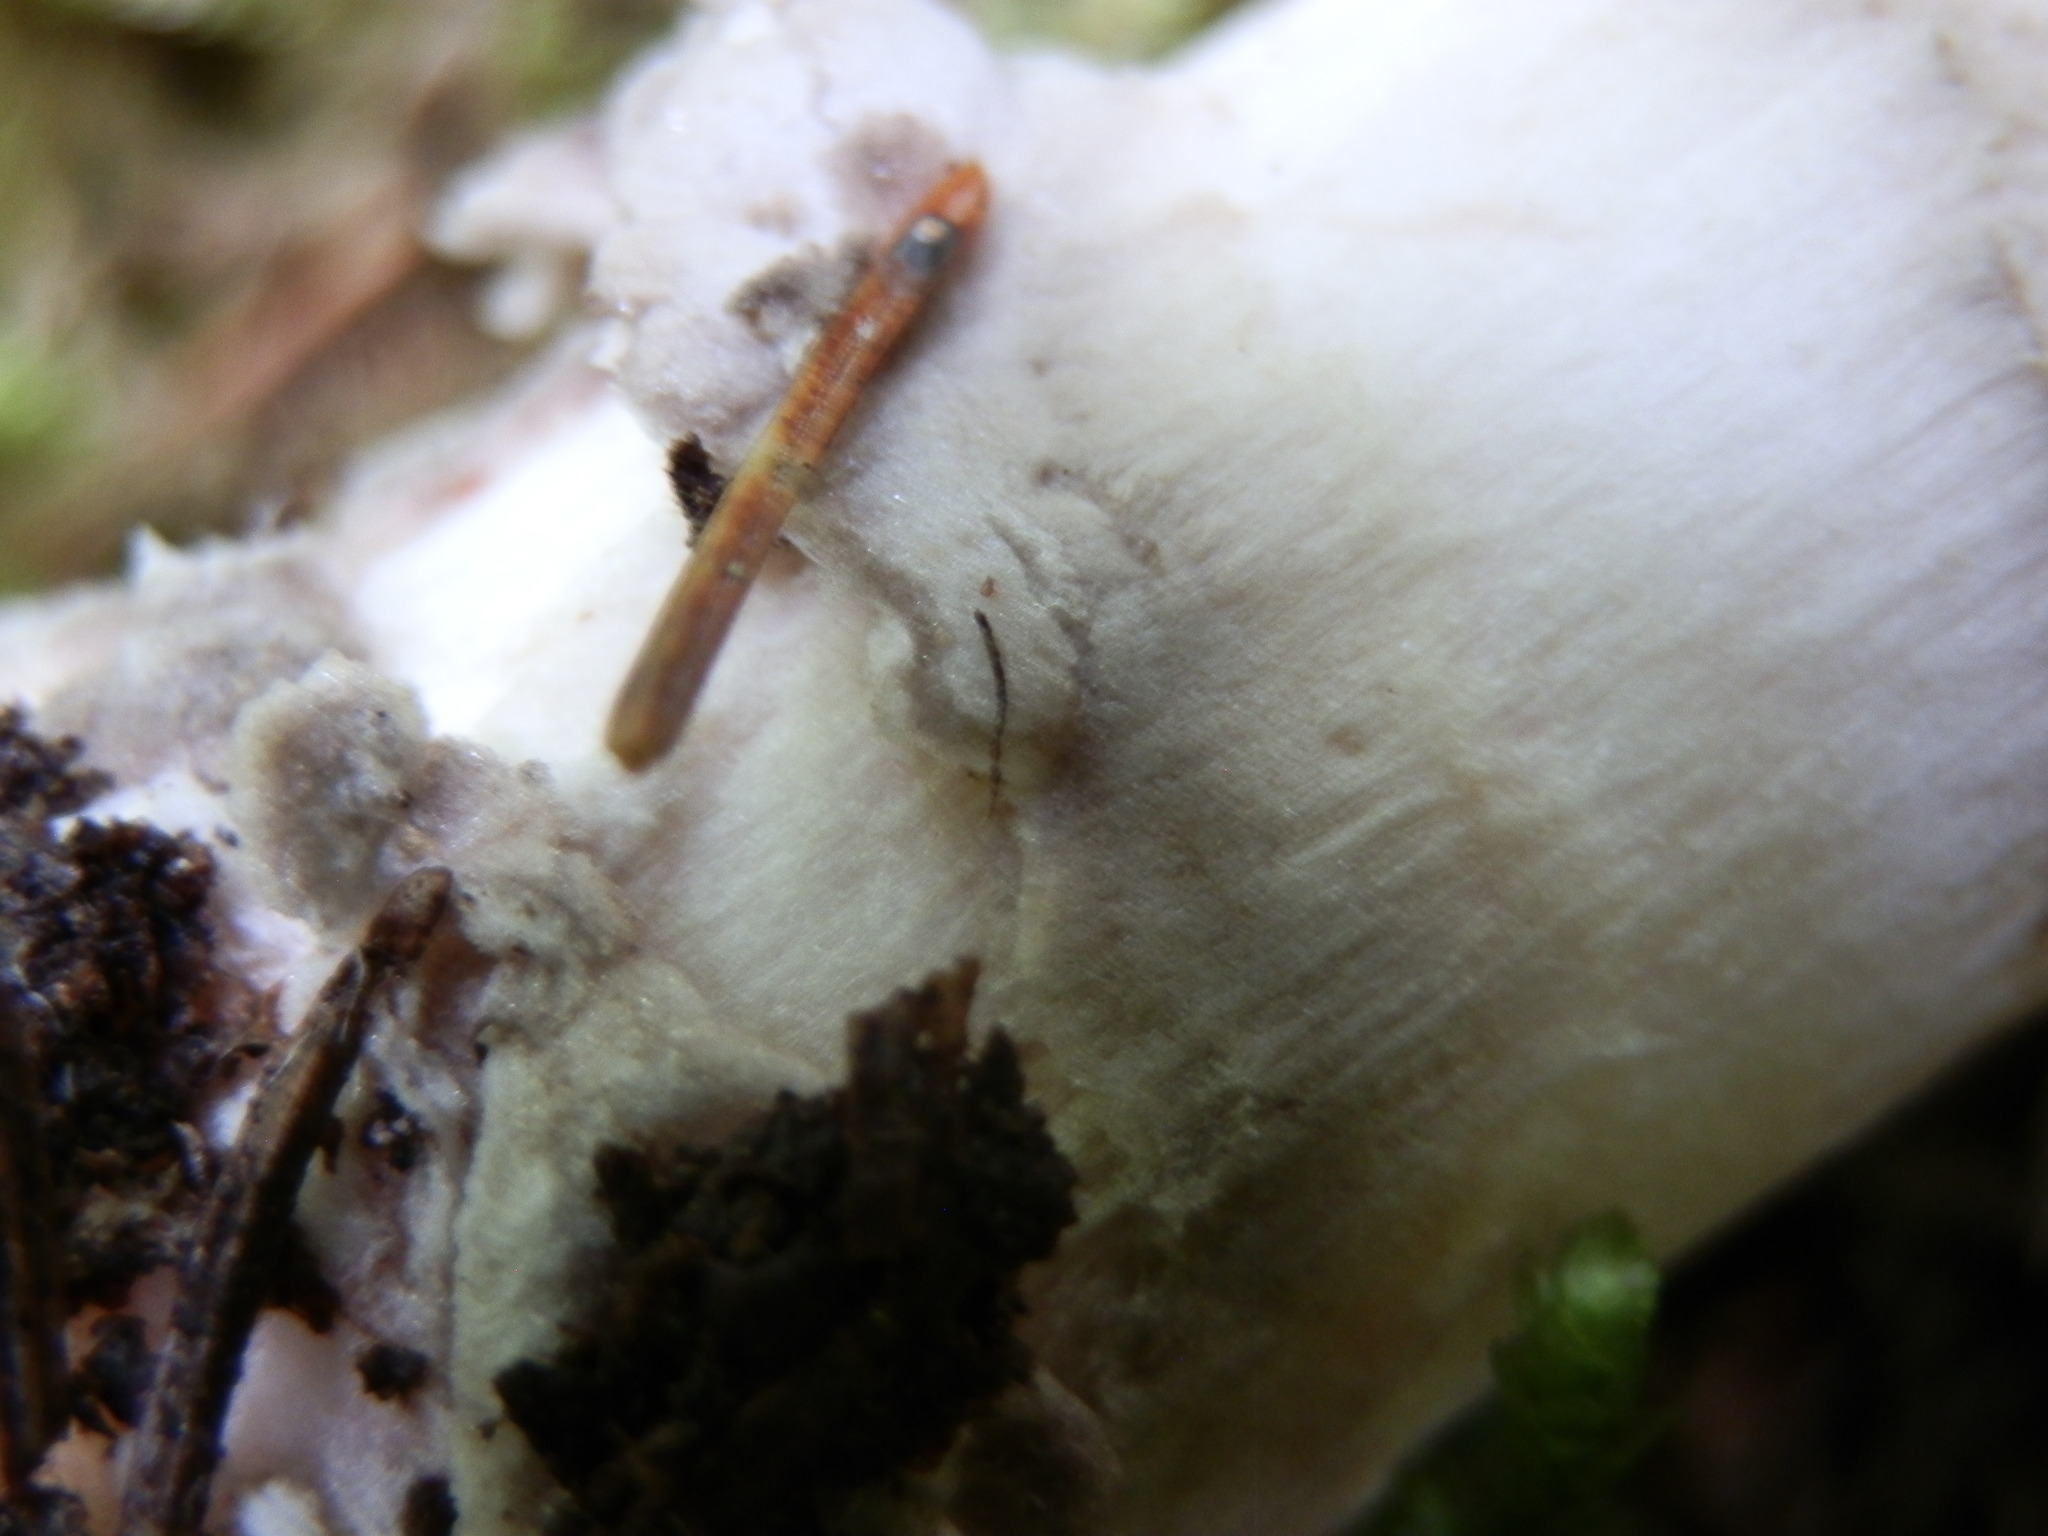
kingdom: Fungi
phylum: Basidiomycota
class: Agaricomycetes
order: Agaricales
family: Amanitaceae
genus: Amanita
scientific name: Amanita rhacopus
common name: Shaggy legged ringless amanita
